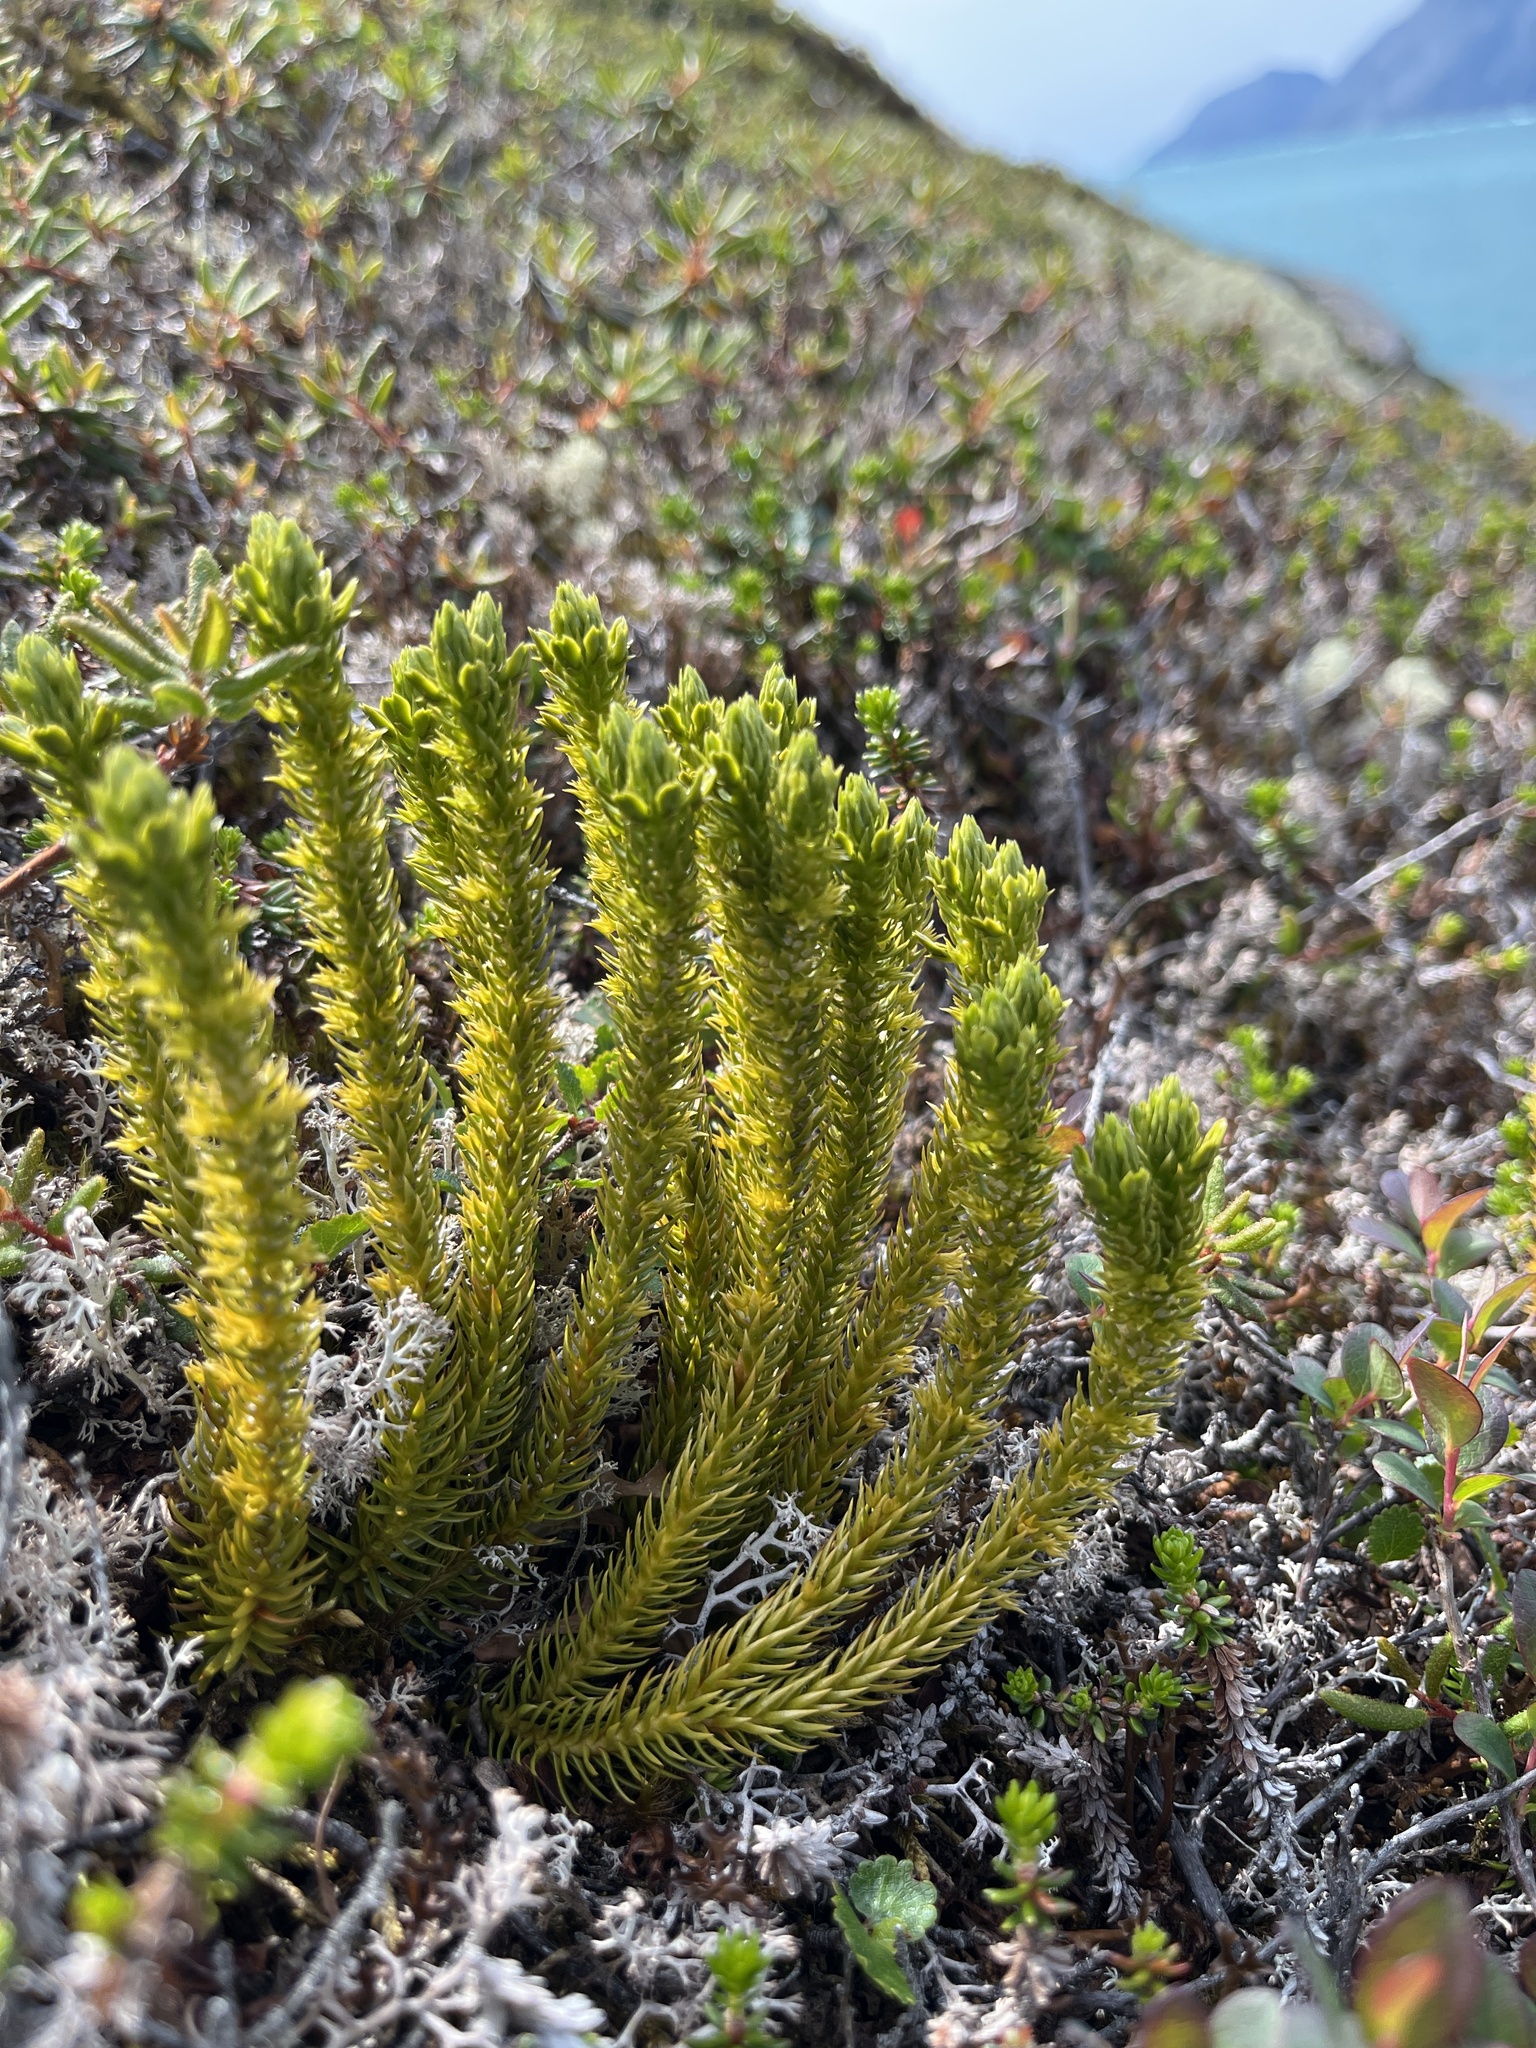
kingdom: Plantae
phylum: Tracheophyta
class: Lycopodiopsida
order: Lycopodiales
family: Lycopodiaceae
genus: Huperzia
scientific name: Huperzia selago
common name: Northern firmoss
